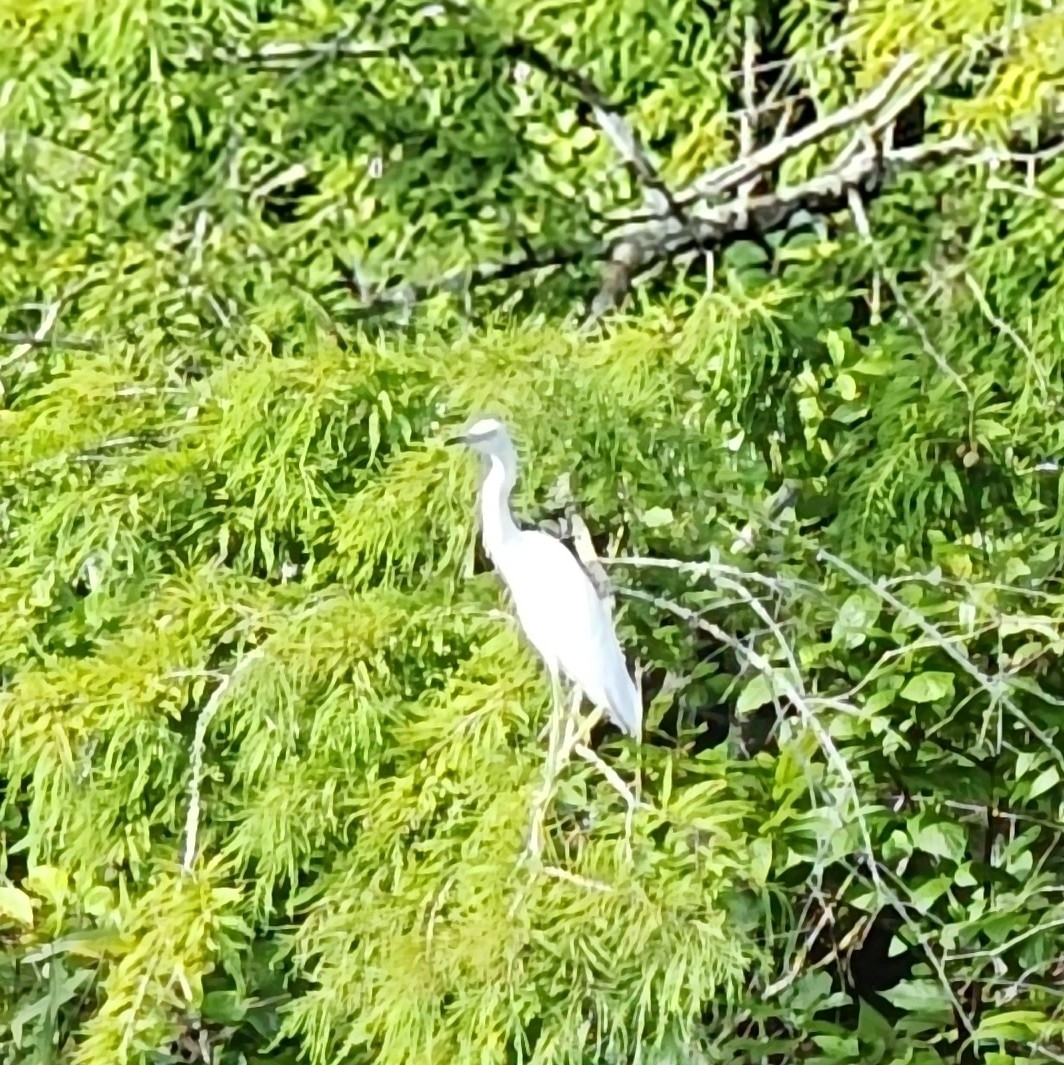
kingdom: Animalia
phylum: Chordata
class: Aves
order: Pelecaniformes
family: Ardeidae
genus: Egretta
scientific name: Egretta caerulea
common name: Little blue heron
